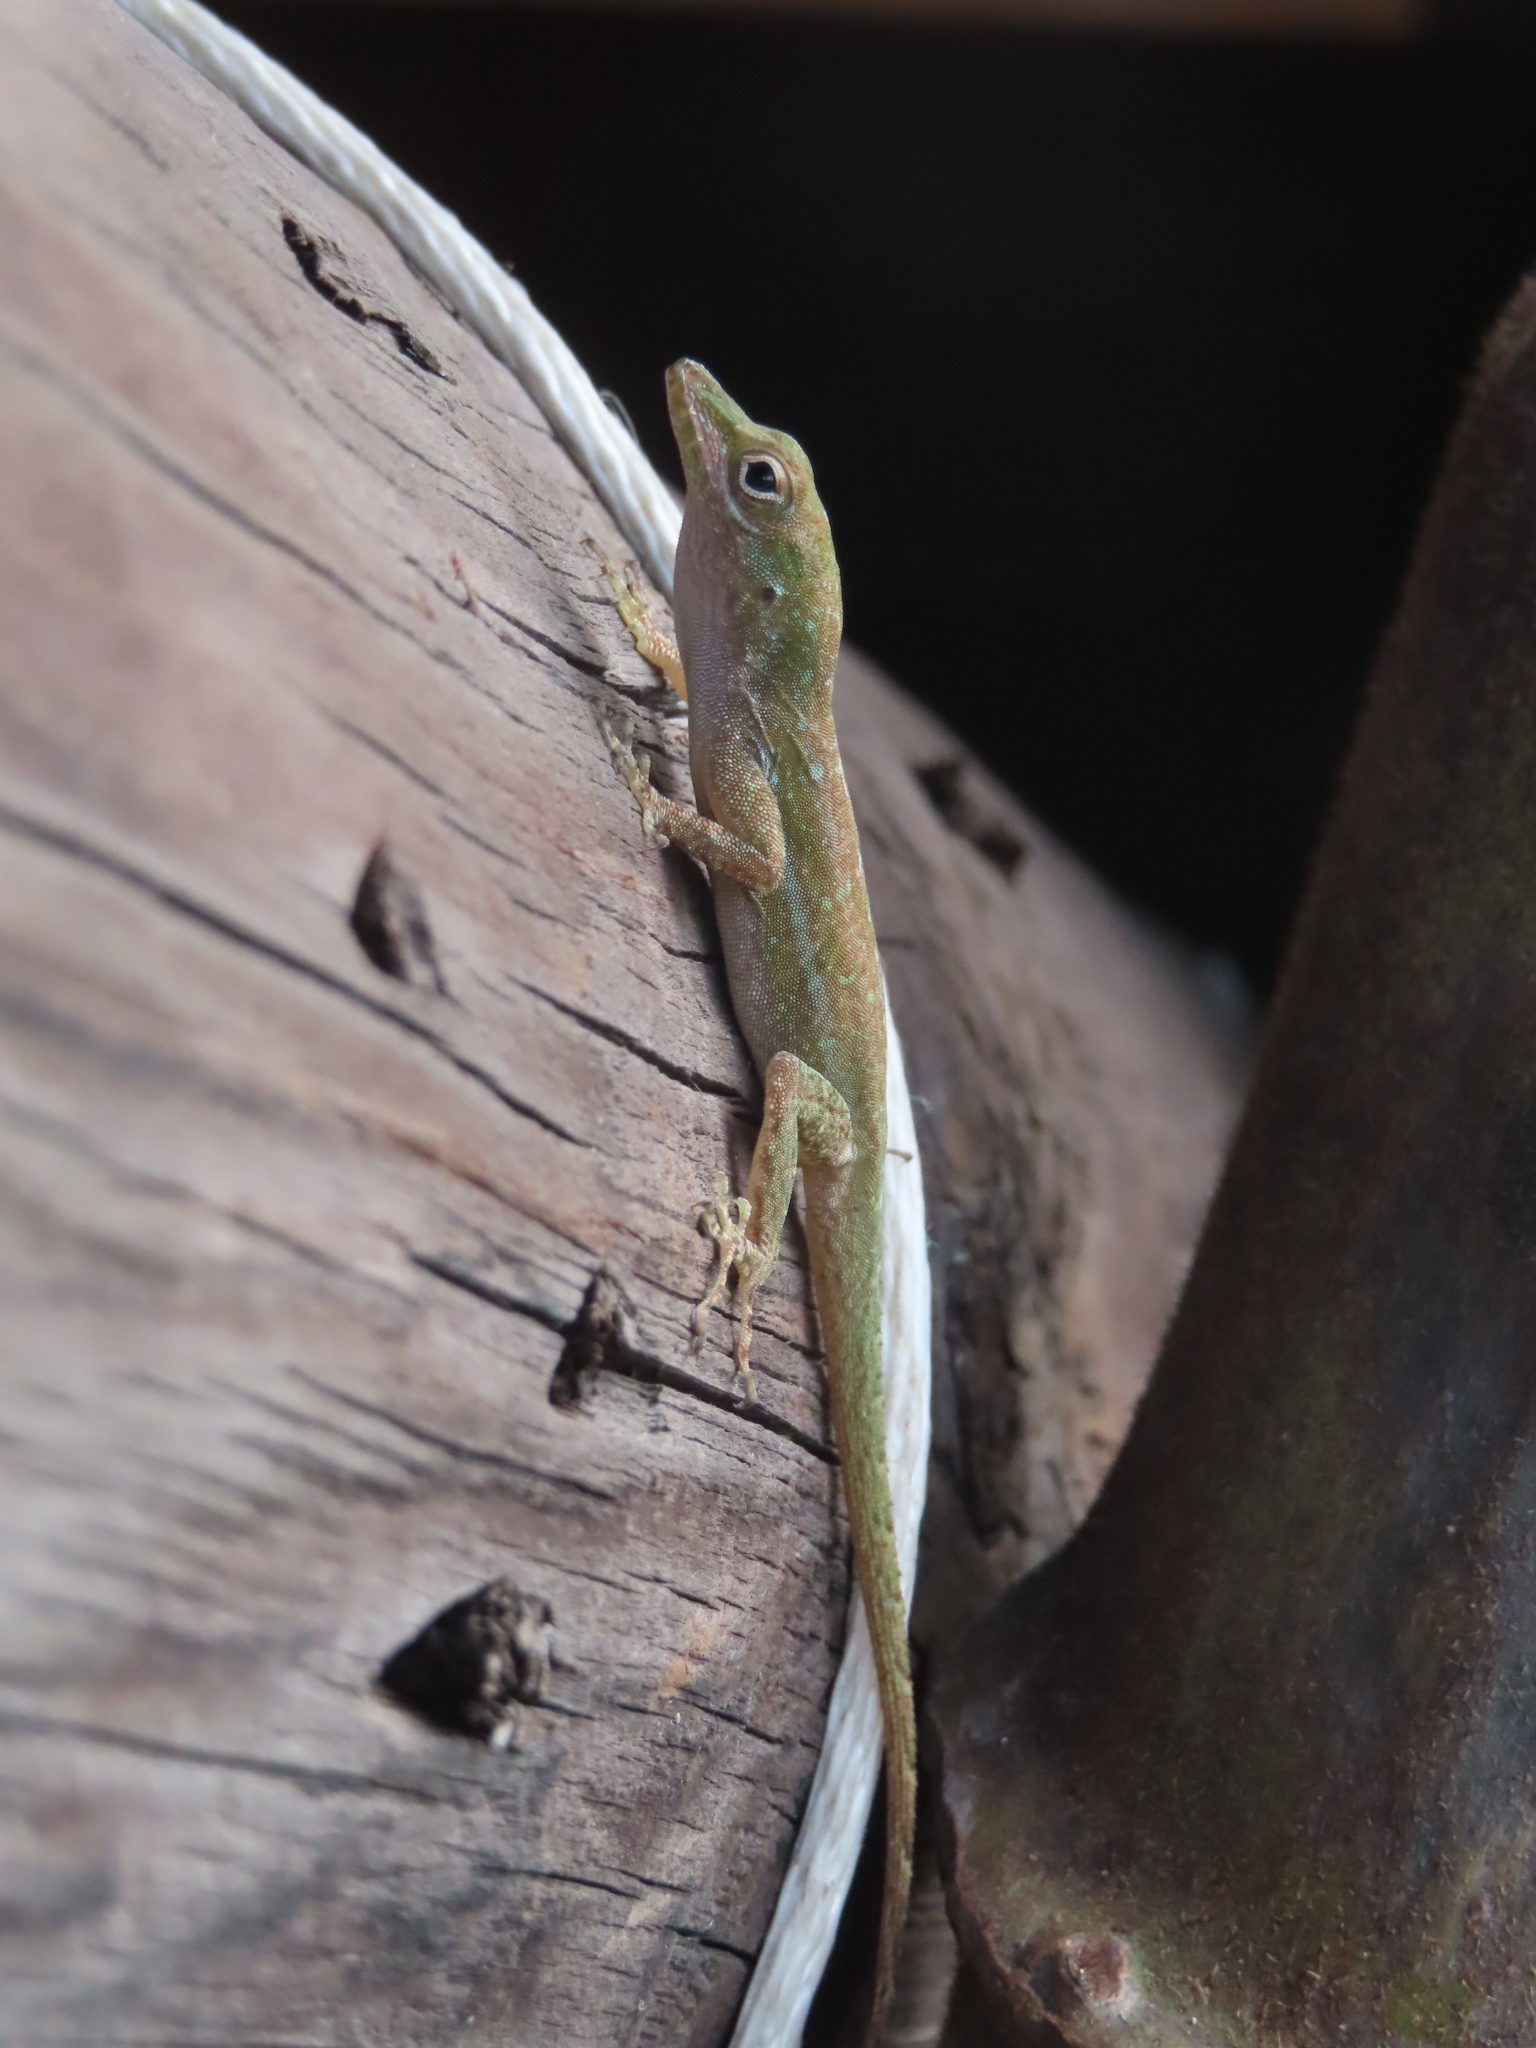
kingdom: Animalia
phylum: Chordata
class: Squamata
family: Dactyloidae
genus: Anolis
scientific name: Anolis evermanni
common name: Emerald anole
